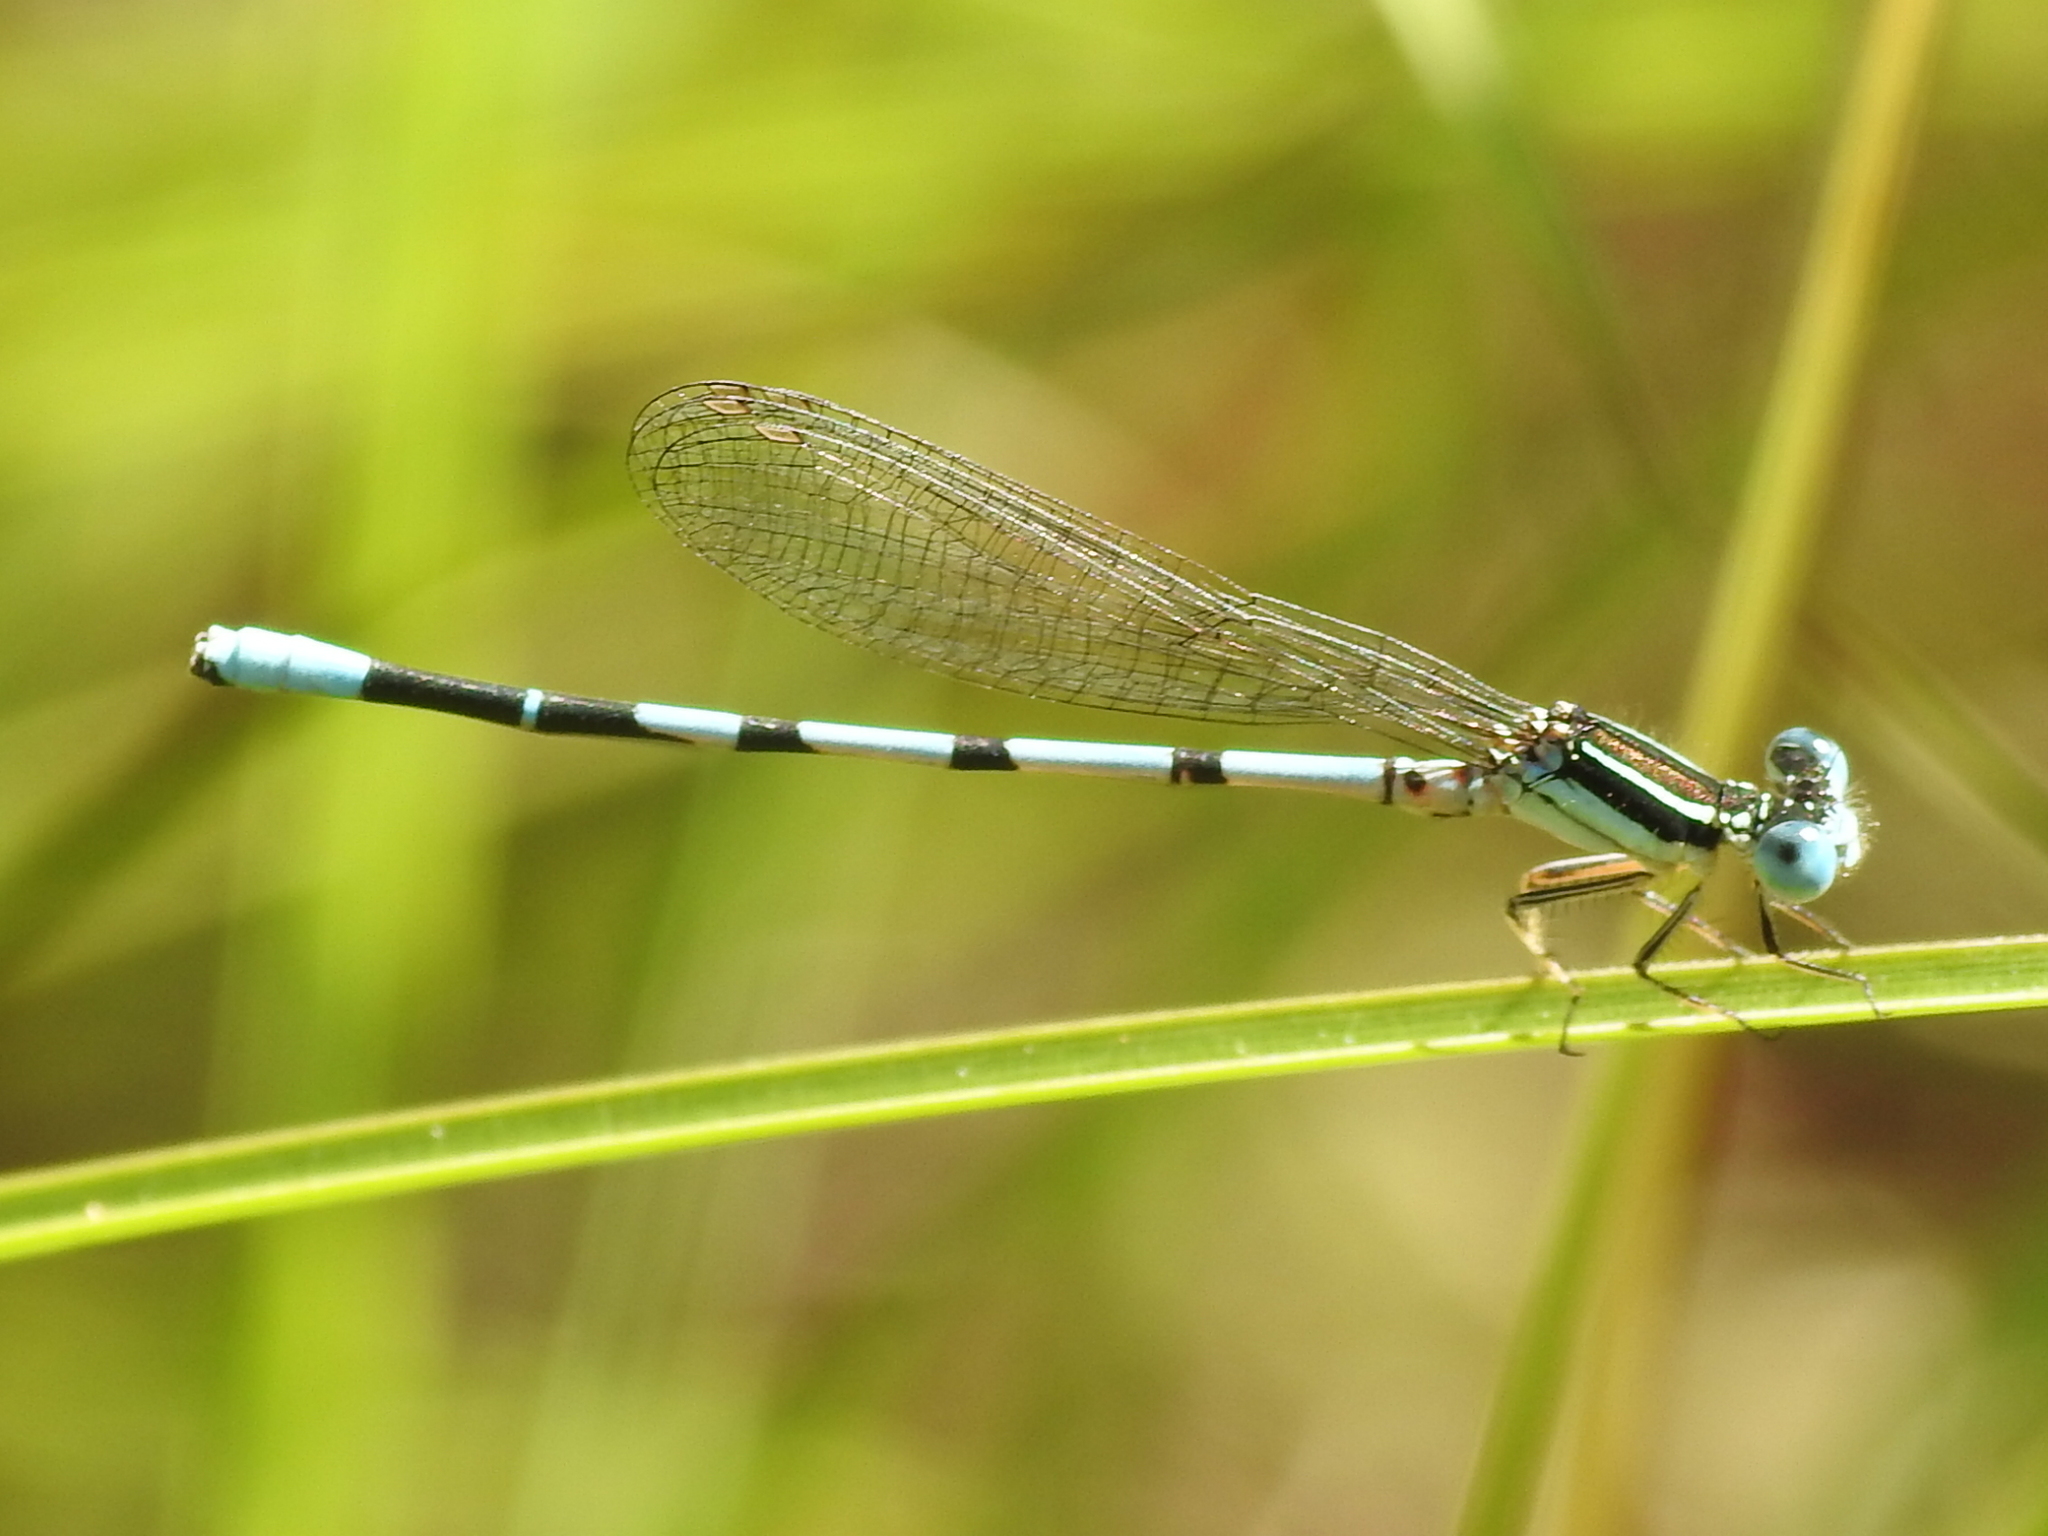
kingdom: Animalia
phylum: Arthropoda
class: Insecta
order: Odonata
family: Coenagrionidae
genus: Argia
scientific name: Argia bipunctulata
